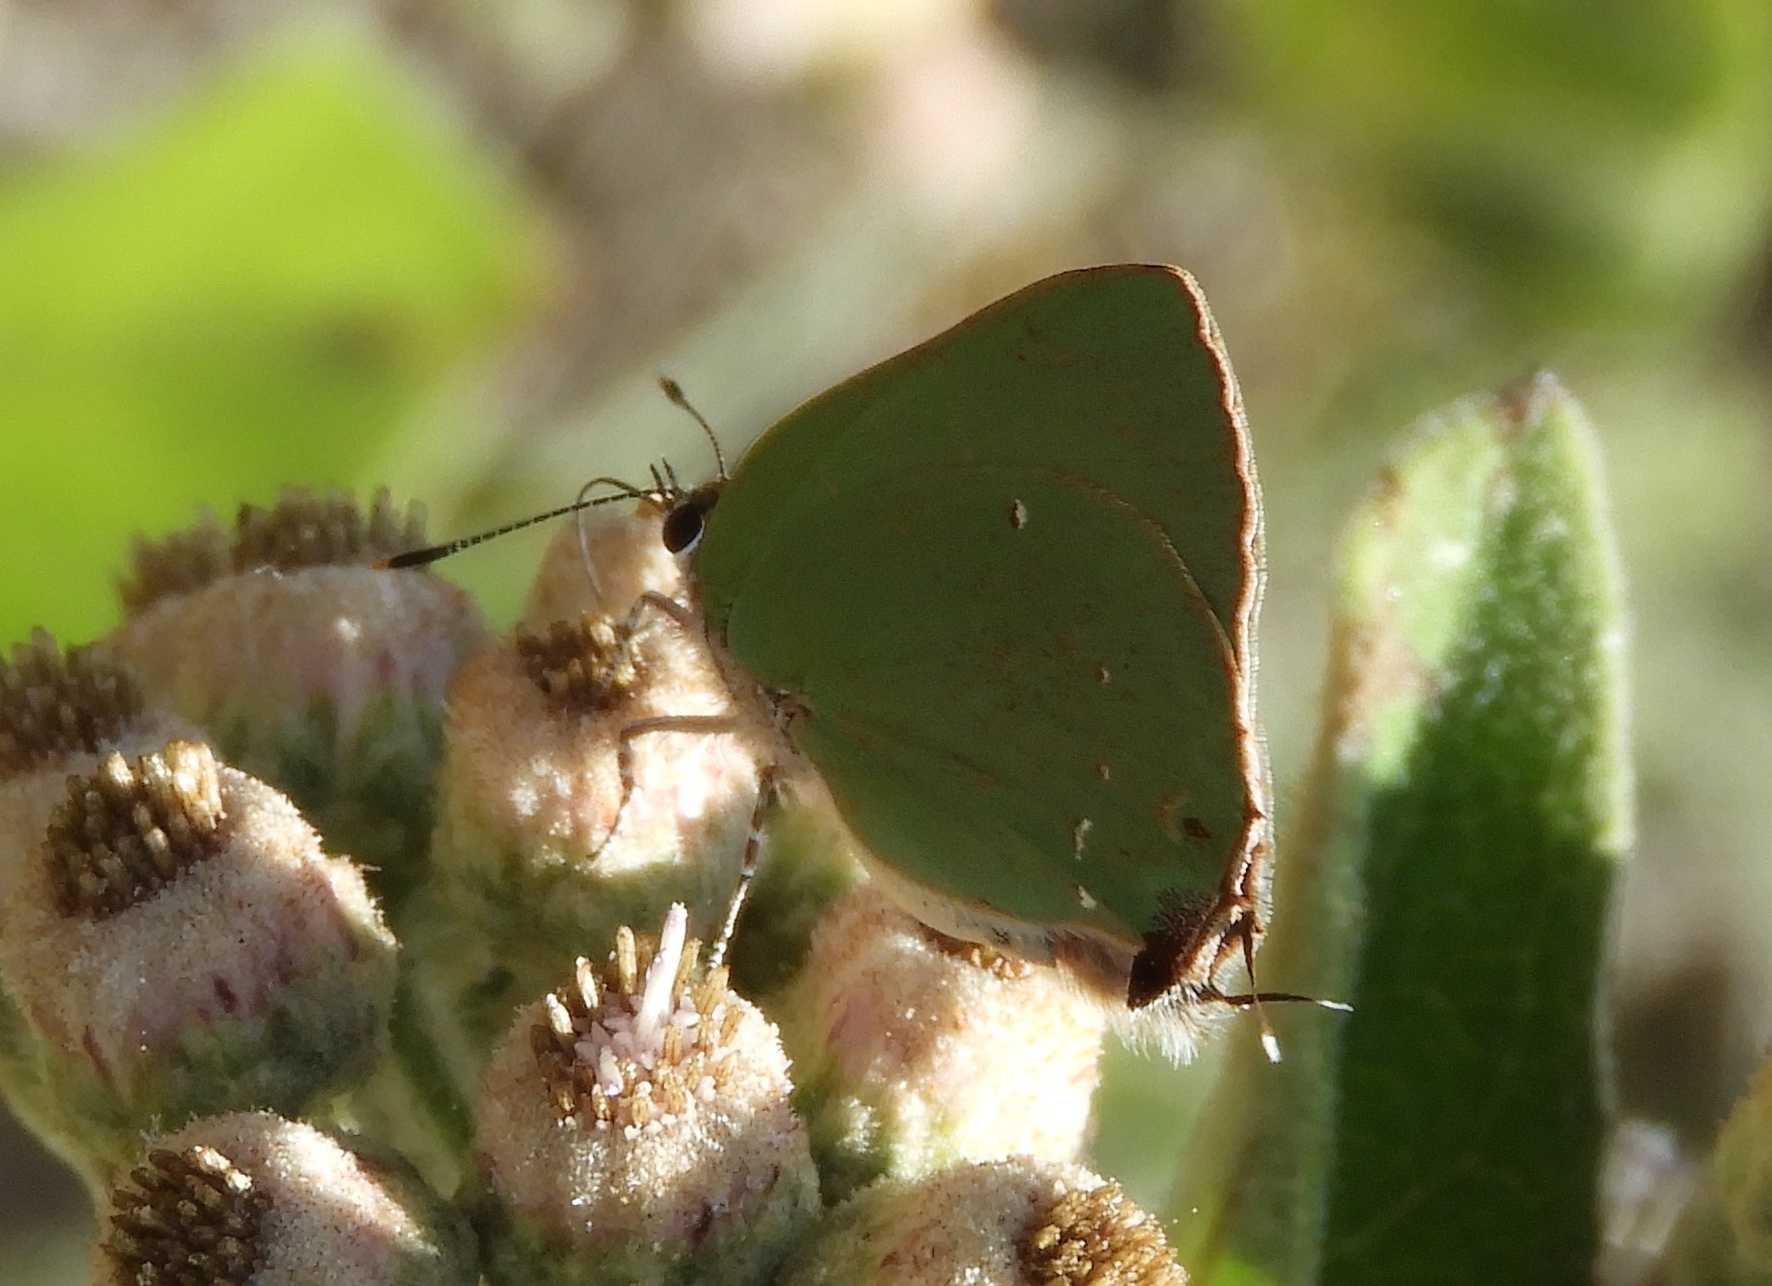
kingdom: Animalia
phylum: Arthropoda
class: Insecta
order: Lepidoptera
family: Lycaenidae
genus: Thecla
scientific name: Thecla herodotus
